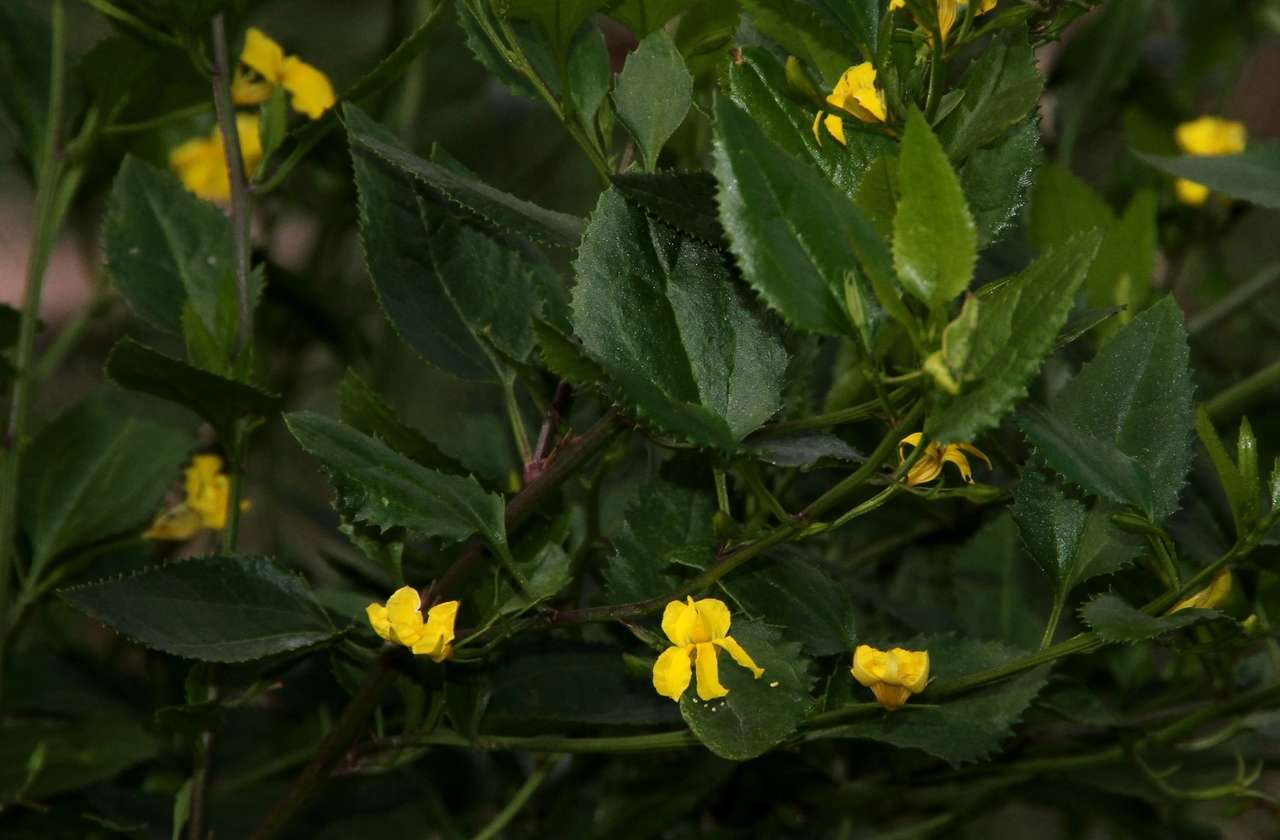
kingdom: Plantae
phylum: Tracheophyta
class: Magnoliopsida
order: Asterales
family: Goodeniaceae
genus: Goodenia
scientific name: Goodenia ovata
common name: Hop goodenia
